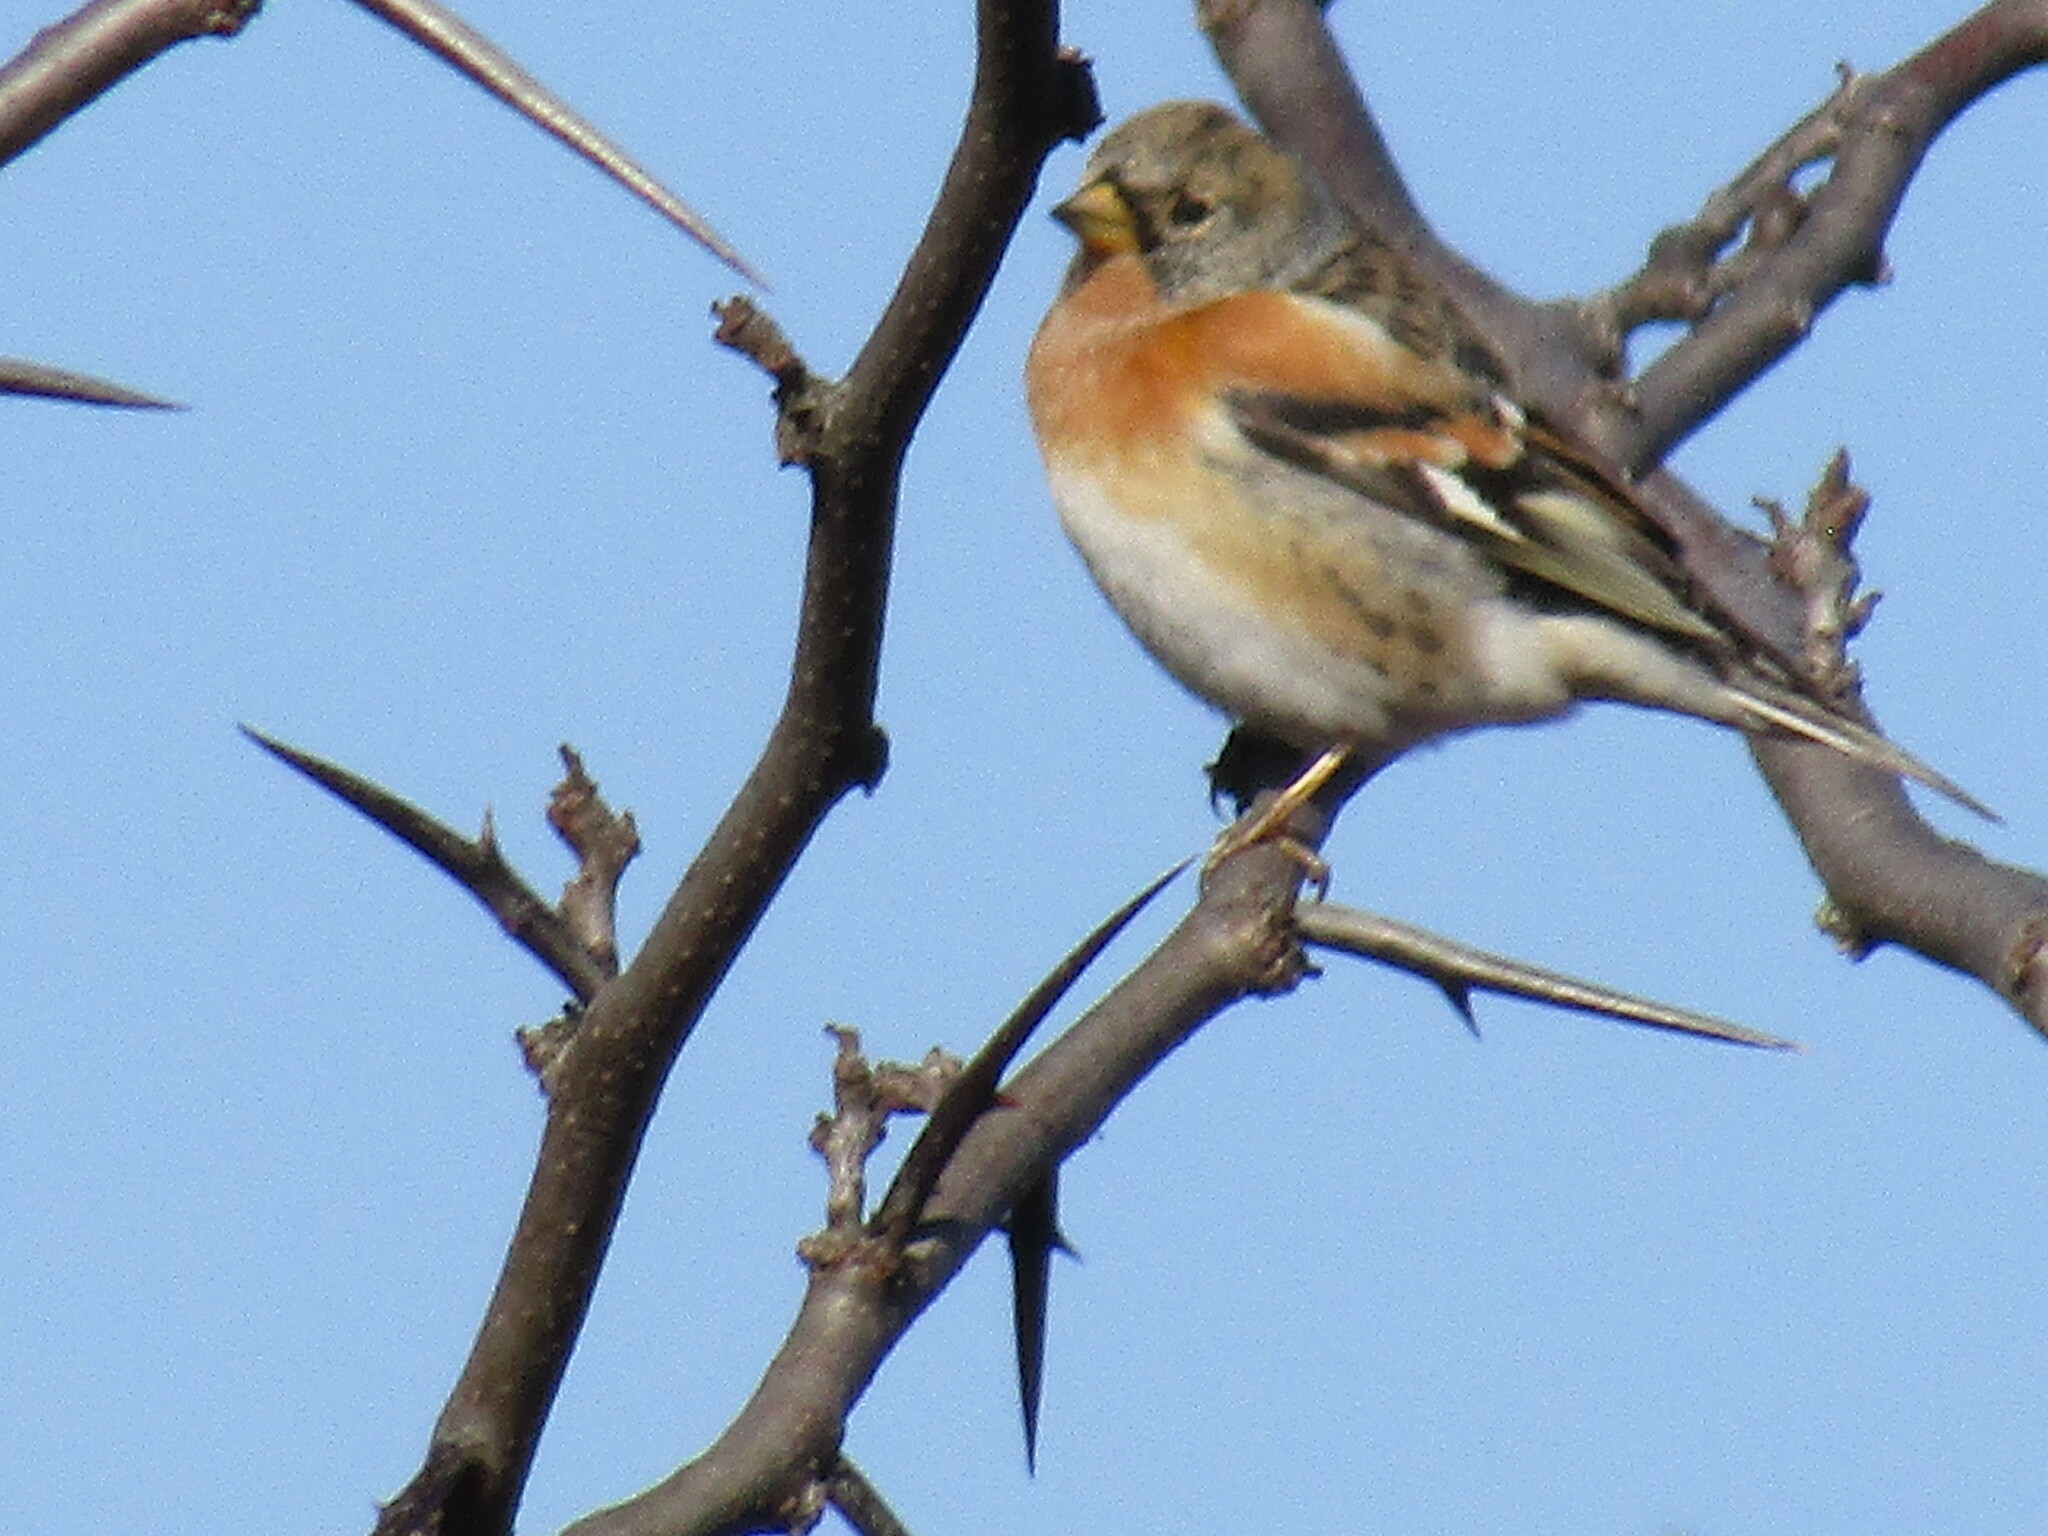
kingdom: Animalia
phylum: Chordata
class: Aves
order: Passeriformes
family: Fringillidae
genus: Fringilla
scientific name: Fringilla montifringilla
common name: Brambling
